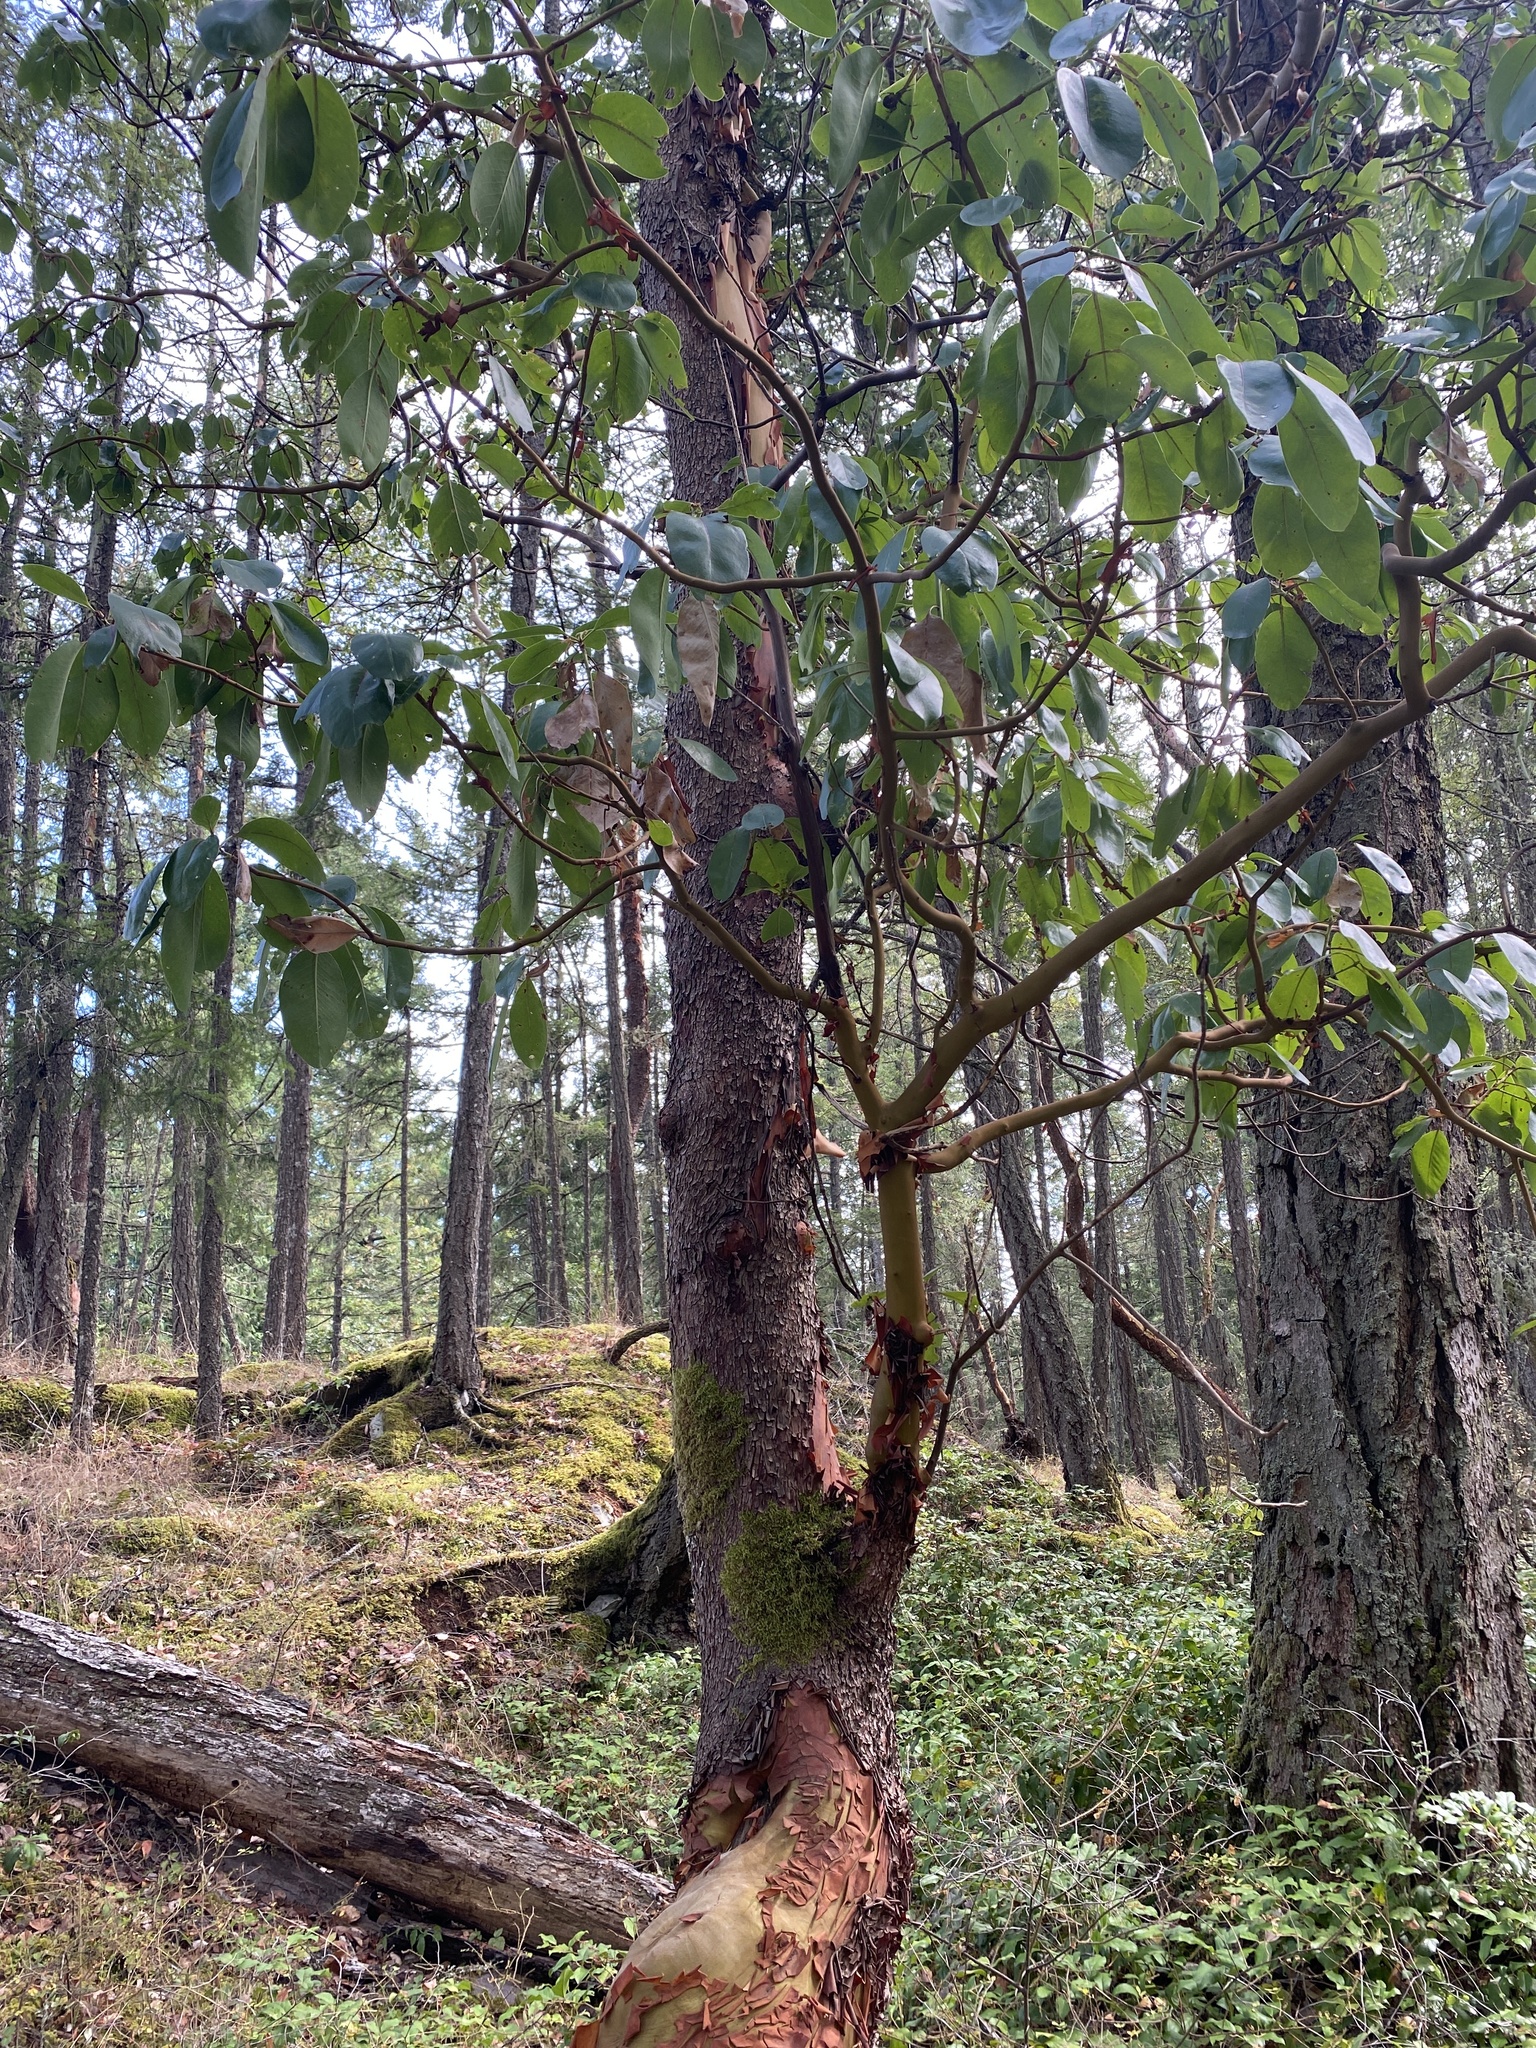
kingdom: Plantae
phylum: Tracheophyta
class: Magnoliopsida
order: Ericales
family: Ericaceae
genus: Arbutus
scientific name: Arbutus menziesii
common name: Pacific madrone
